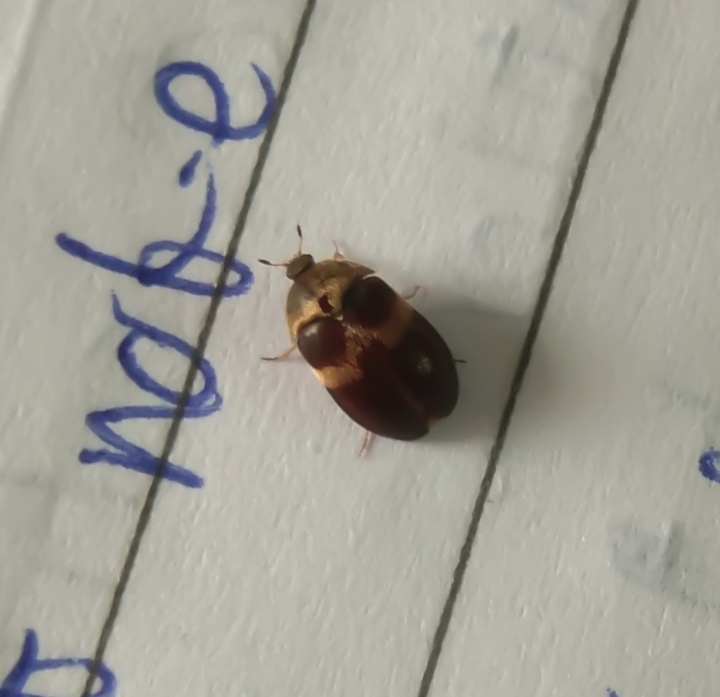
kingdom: Animalia
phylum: Arthropoda
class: Insecta
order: Coleoptera
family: Dermestidae
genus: Attagenus
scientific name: Attagenus fasciatus
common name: Wardrobe beetle
